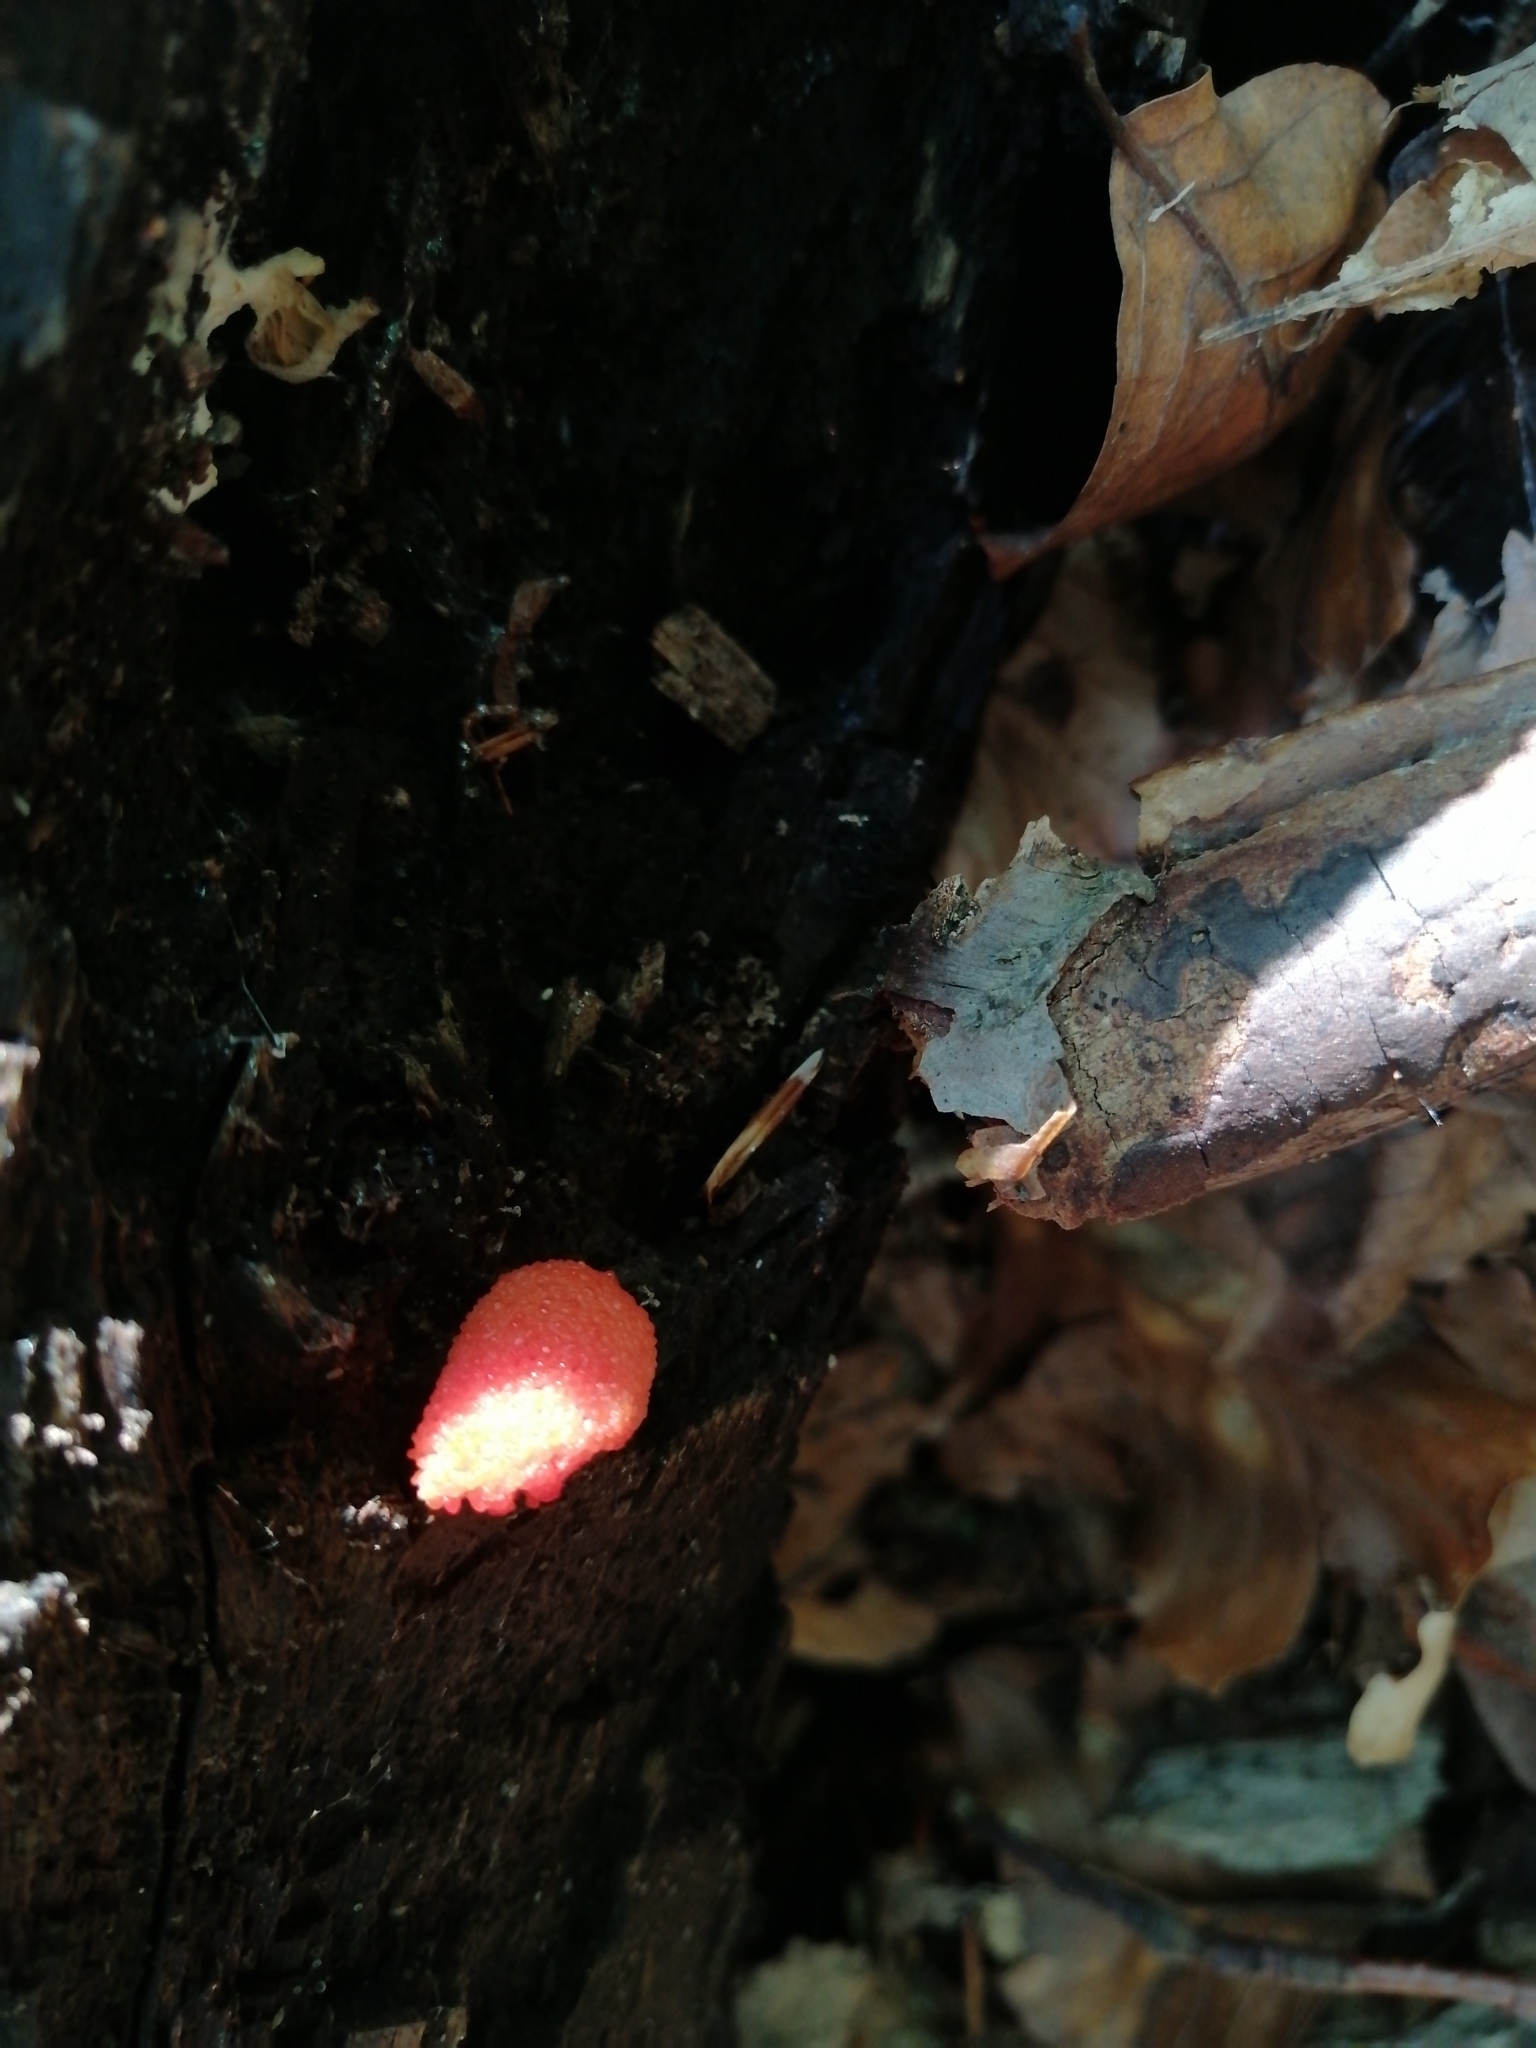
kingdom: Protozoa
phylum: Mycetozoa
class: Myxomycetes
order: Cribrariales
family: Tubiferaceae
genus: Tubifera
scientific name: Tubifera ferruginosa
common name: Red raspberry slime mold
